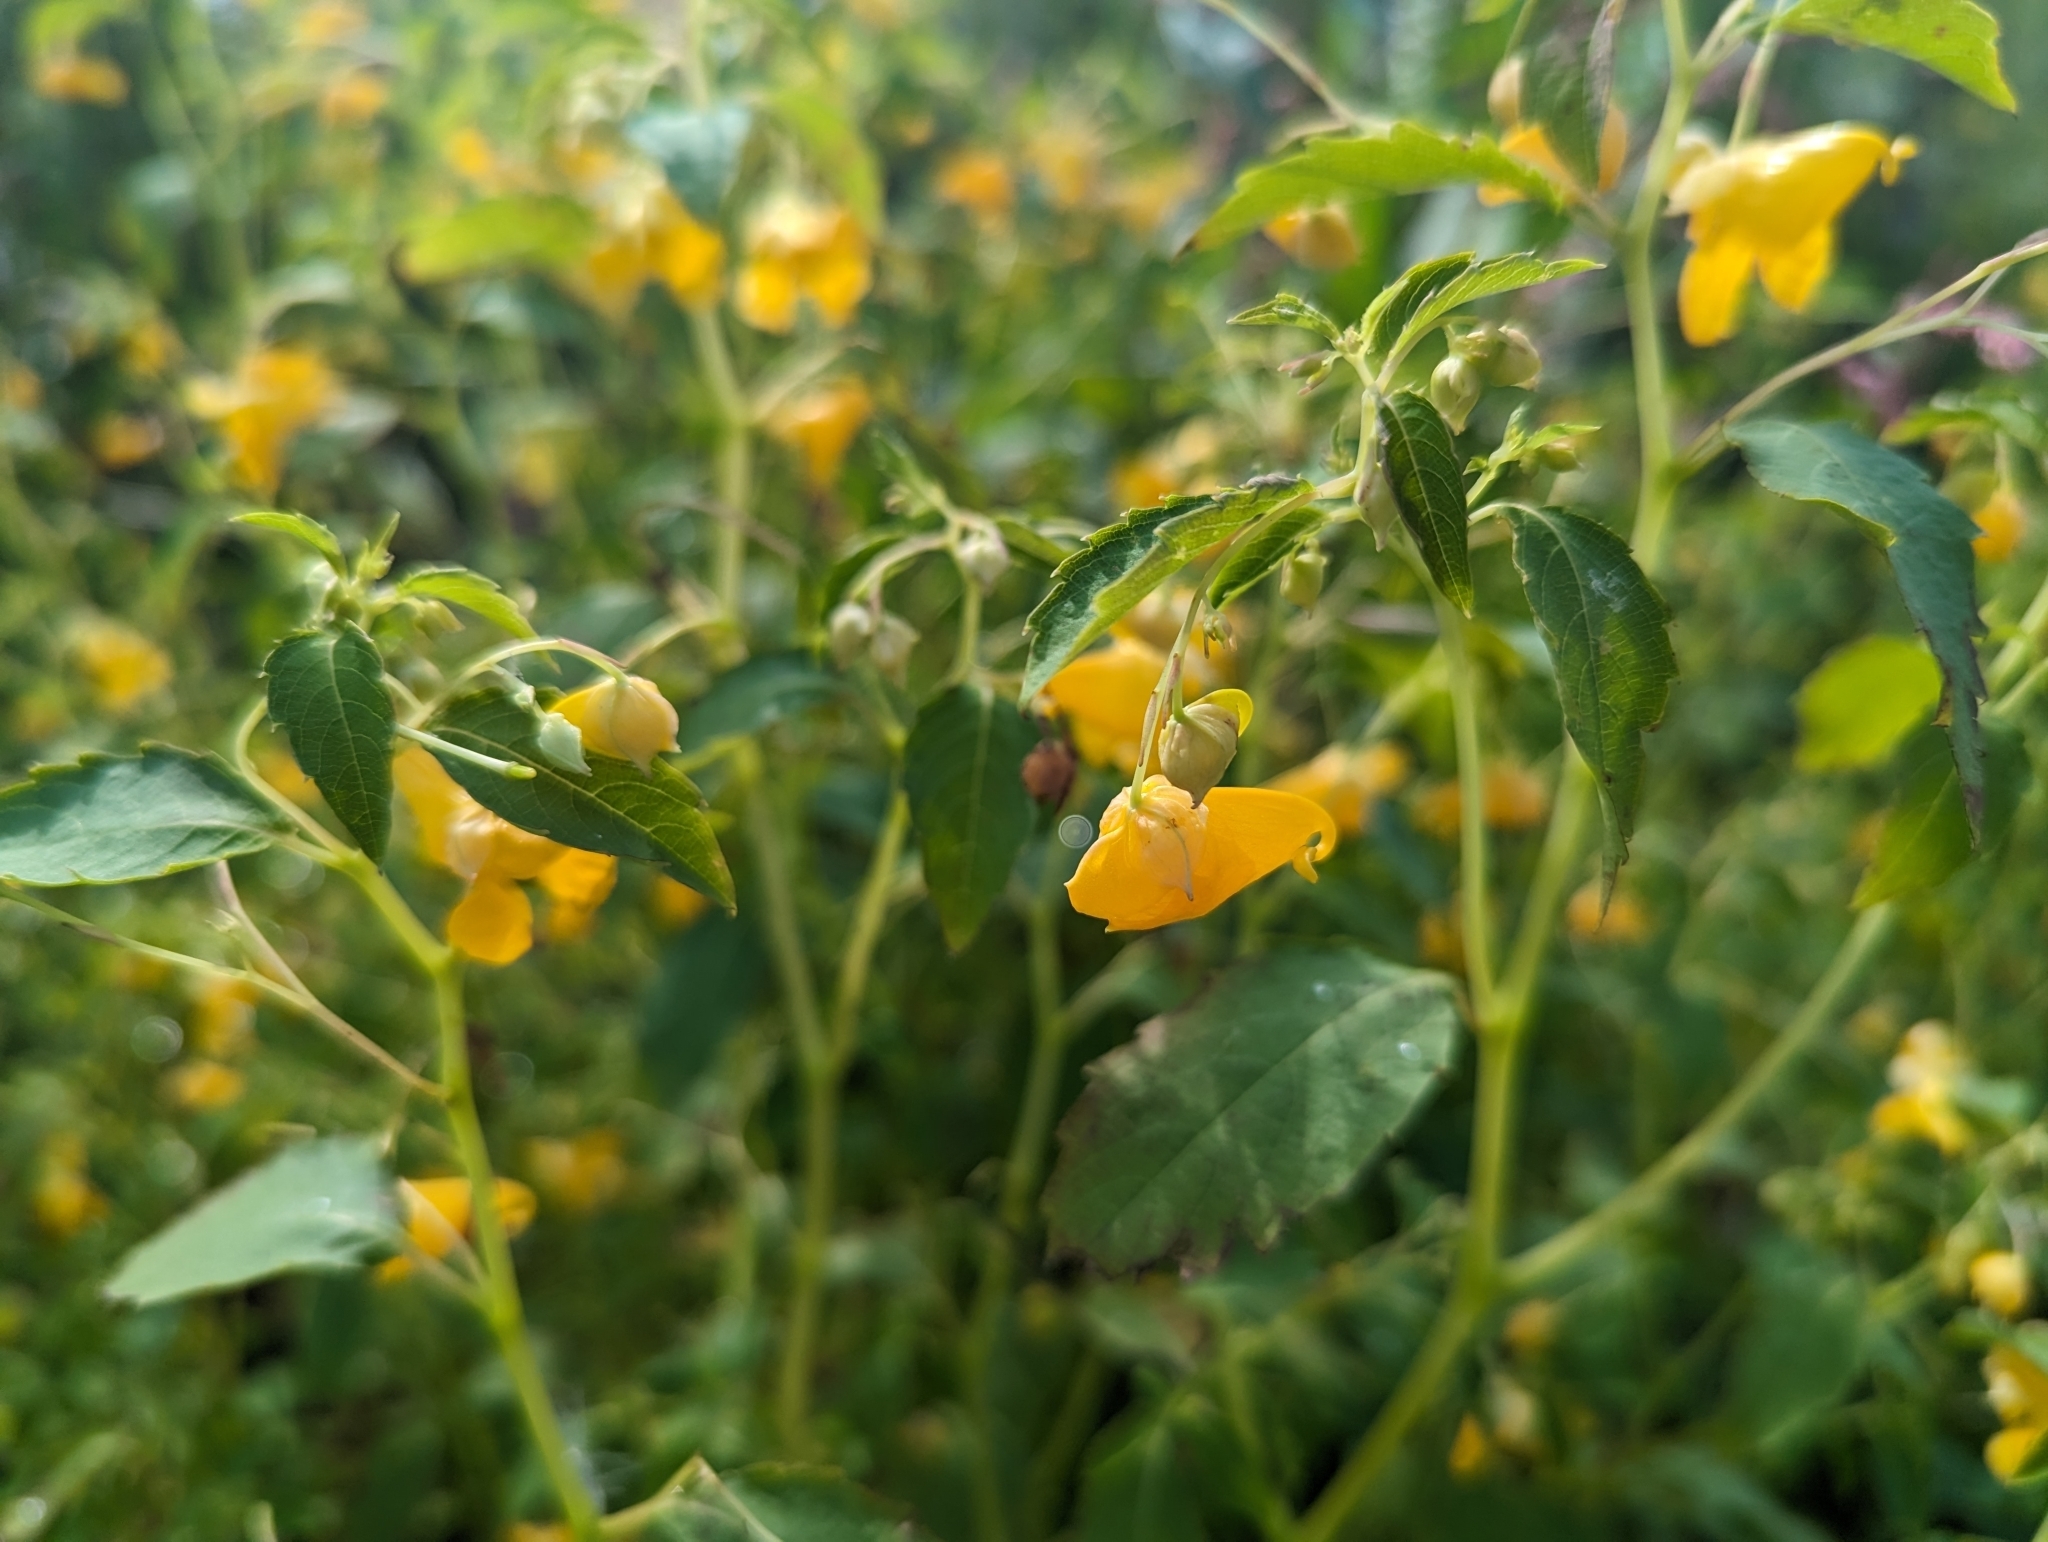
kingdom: Plantae
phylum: Tracheophyta
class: Magnoliopsida
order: Ericales
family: Balsaminaceae
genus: Impatiens
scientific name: Impatiens capensis
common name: Orange balsam
